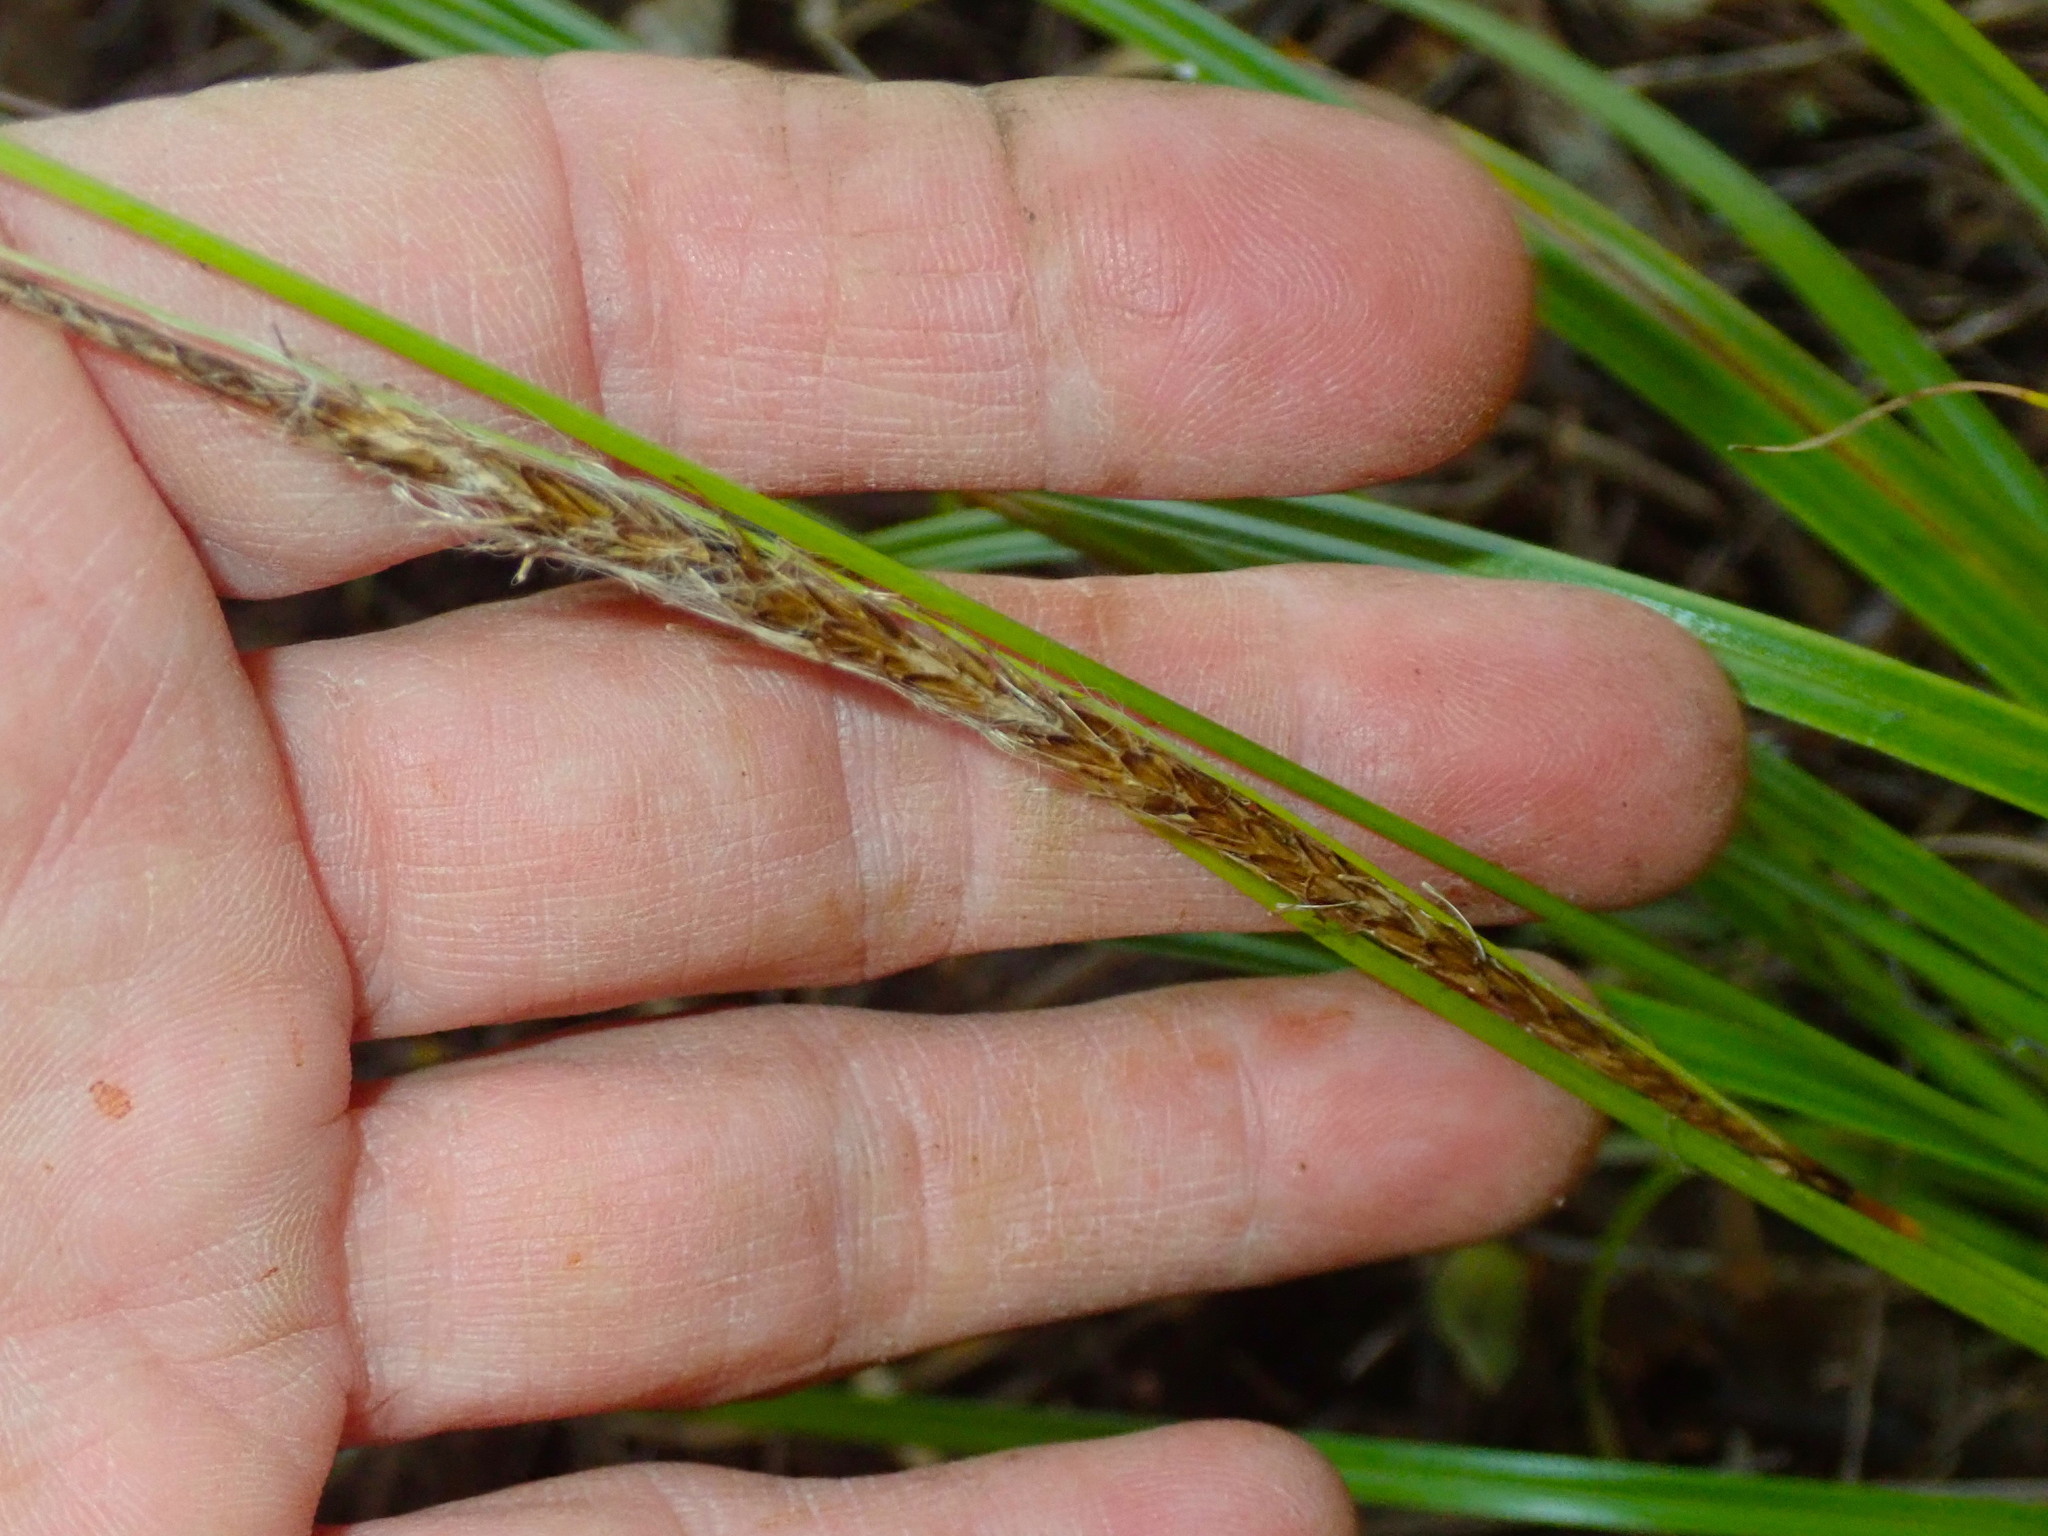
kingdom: Plantae
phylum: Tracheophyta
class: Liliopsida
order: Poales
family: Cyperaceae
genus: Carex
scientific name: Carex uncinata
